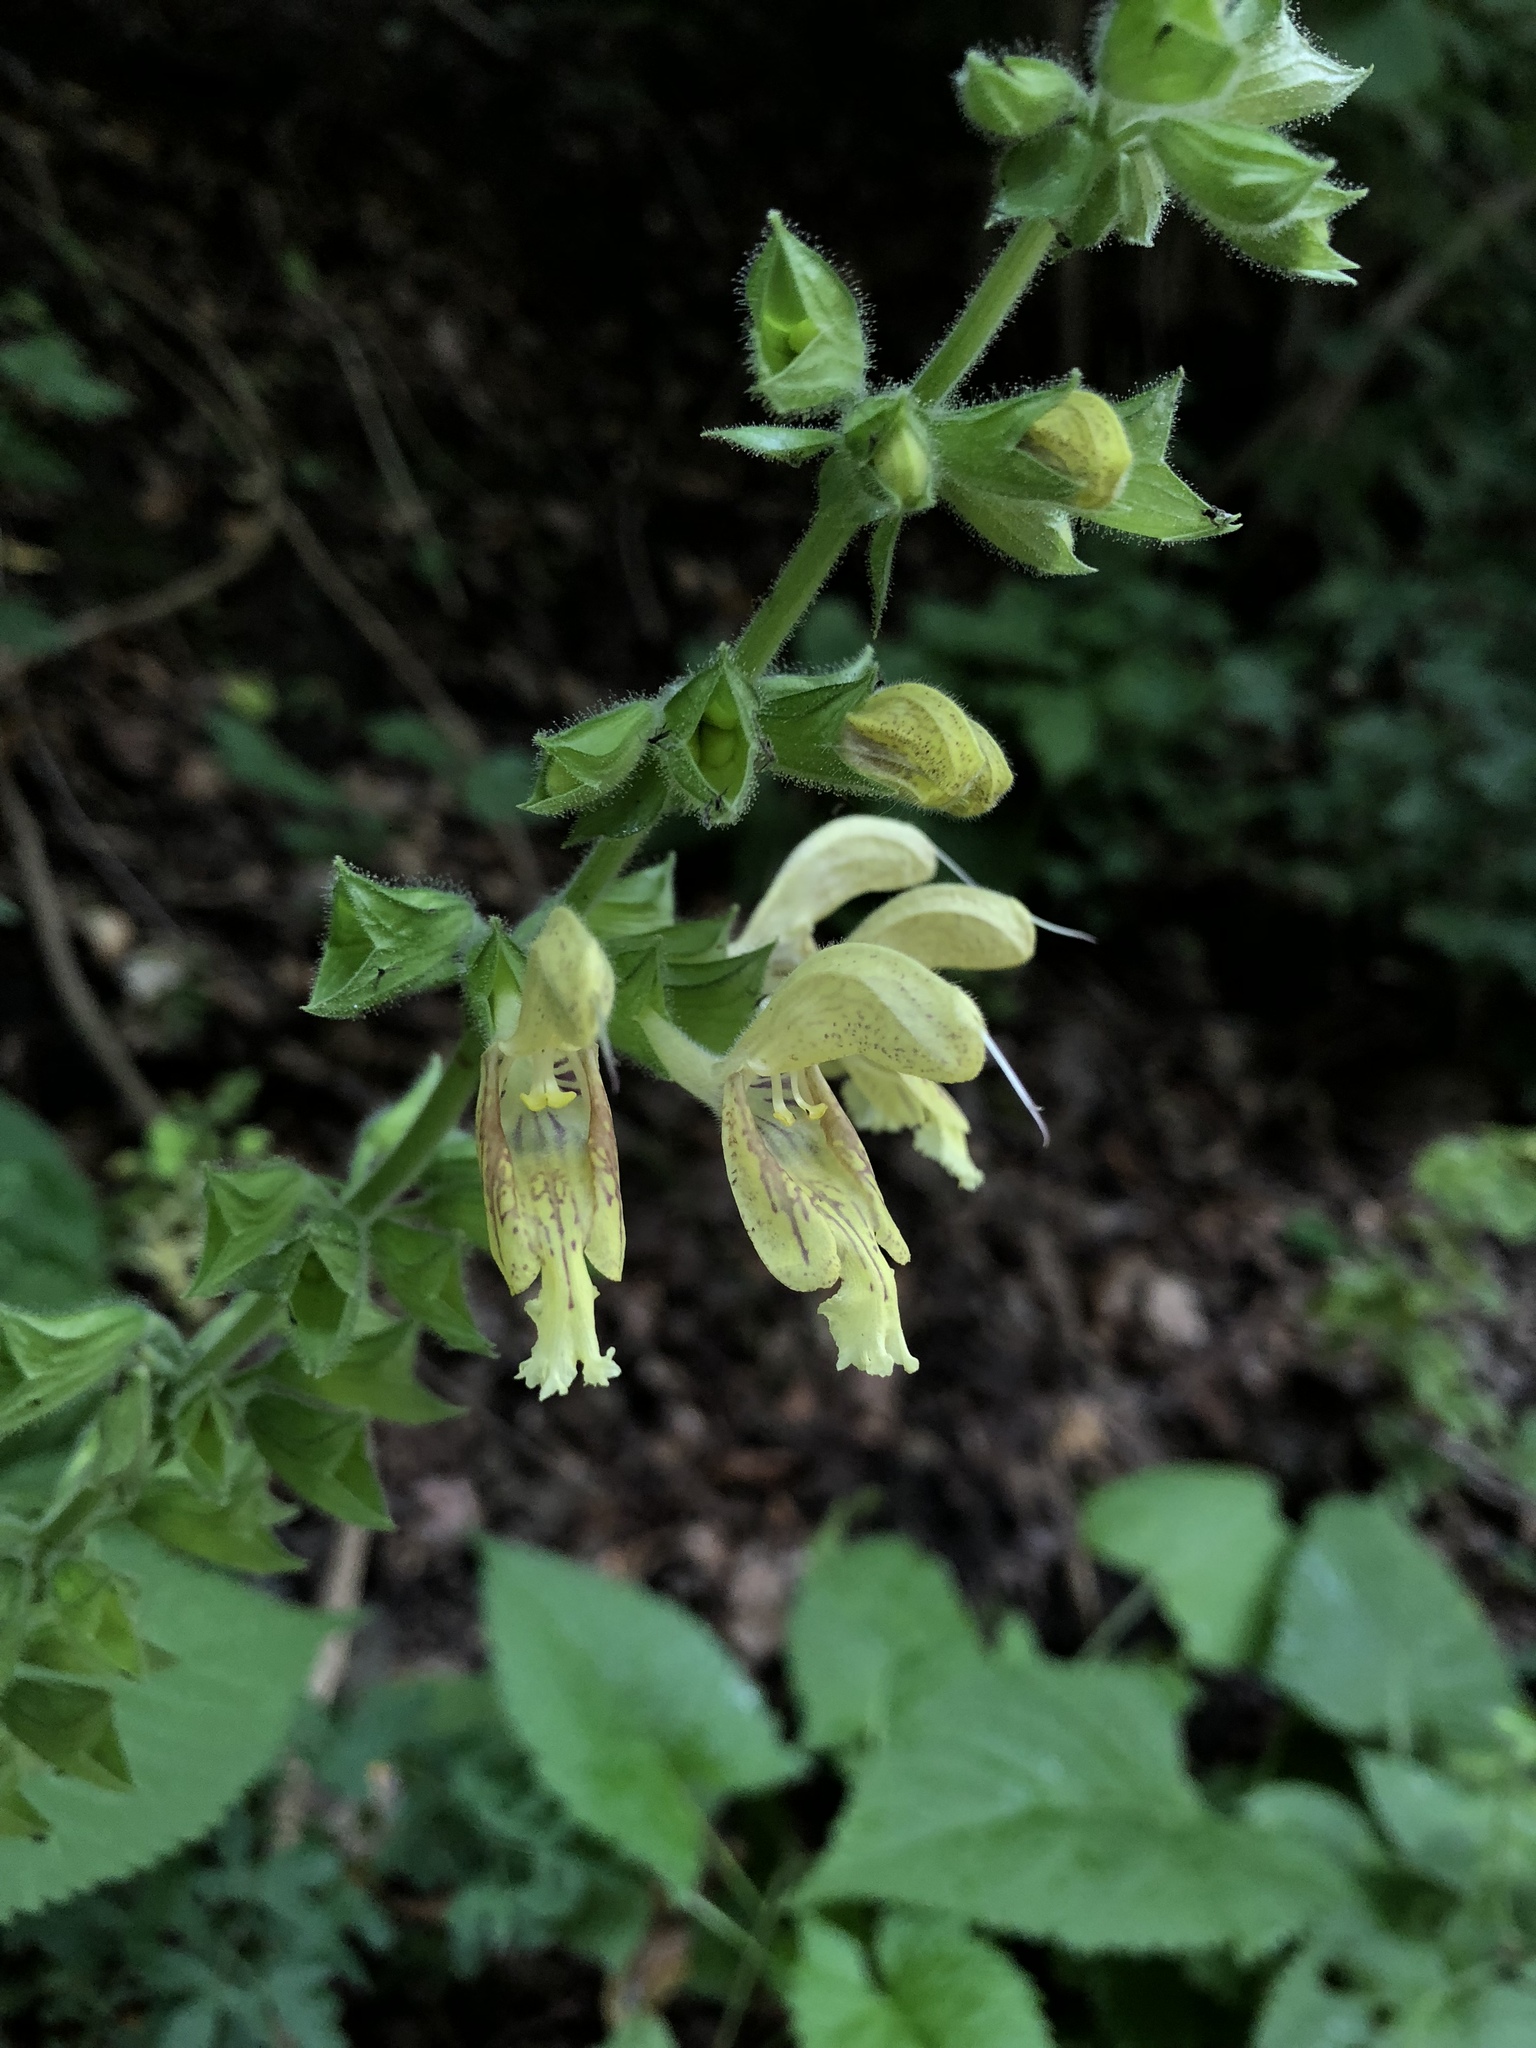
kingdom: Plantae
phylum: Tracheophyta
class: Magnoliopsida
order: Lamiales
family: Lamiaceae
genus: Salvia
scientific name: Salvia glutinosa
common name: Sticky clary
